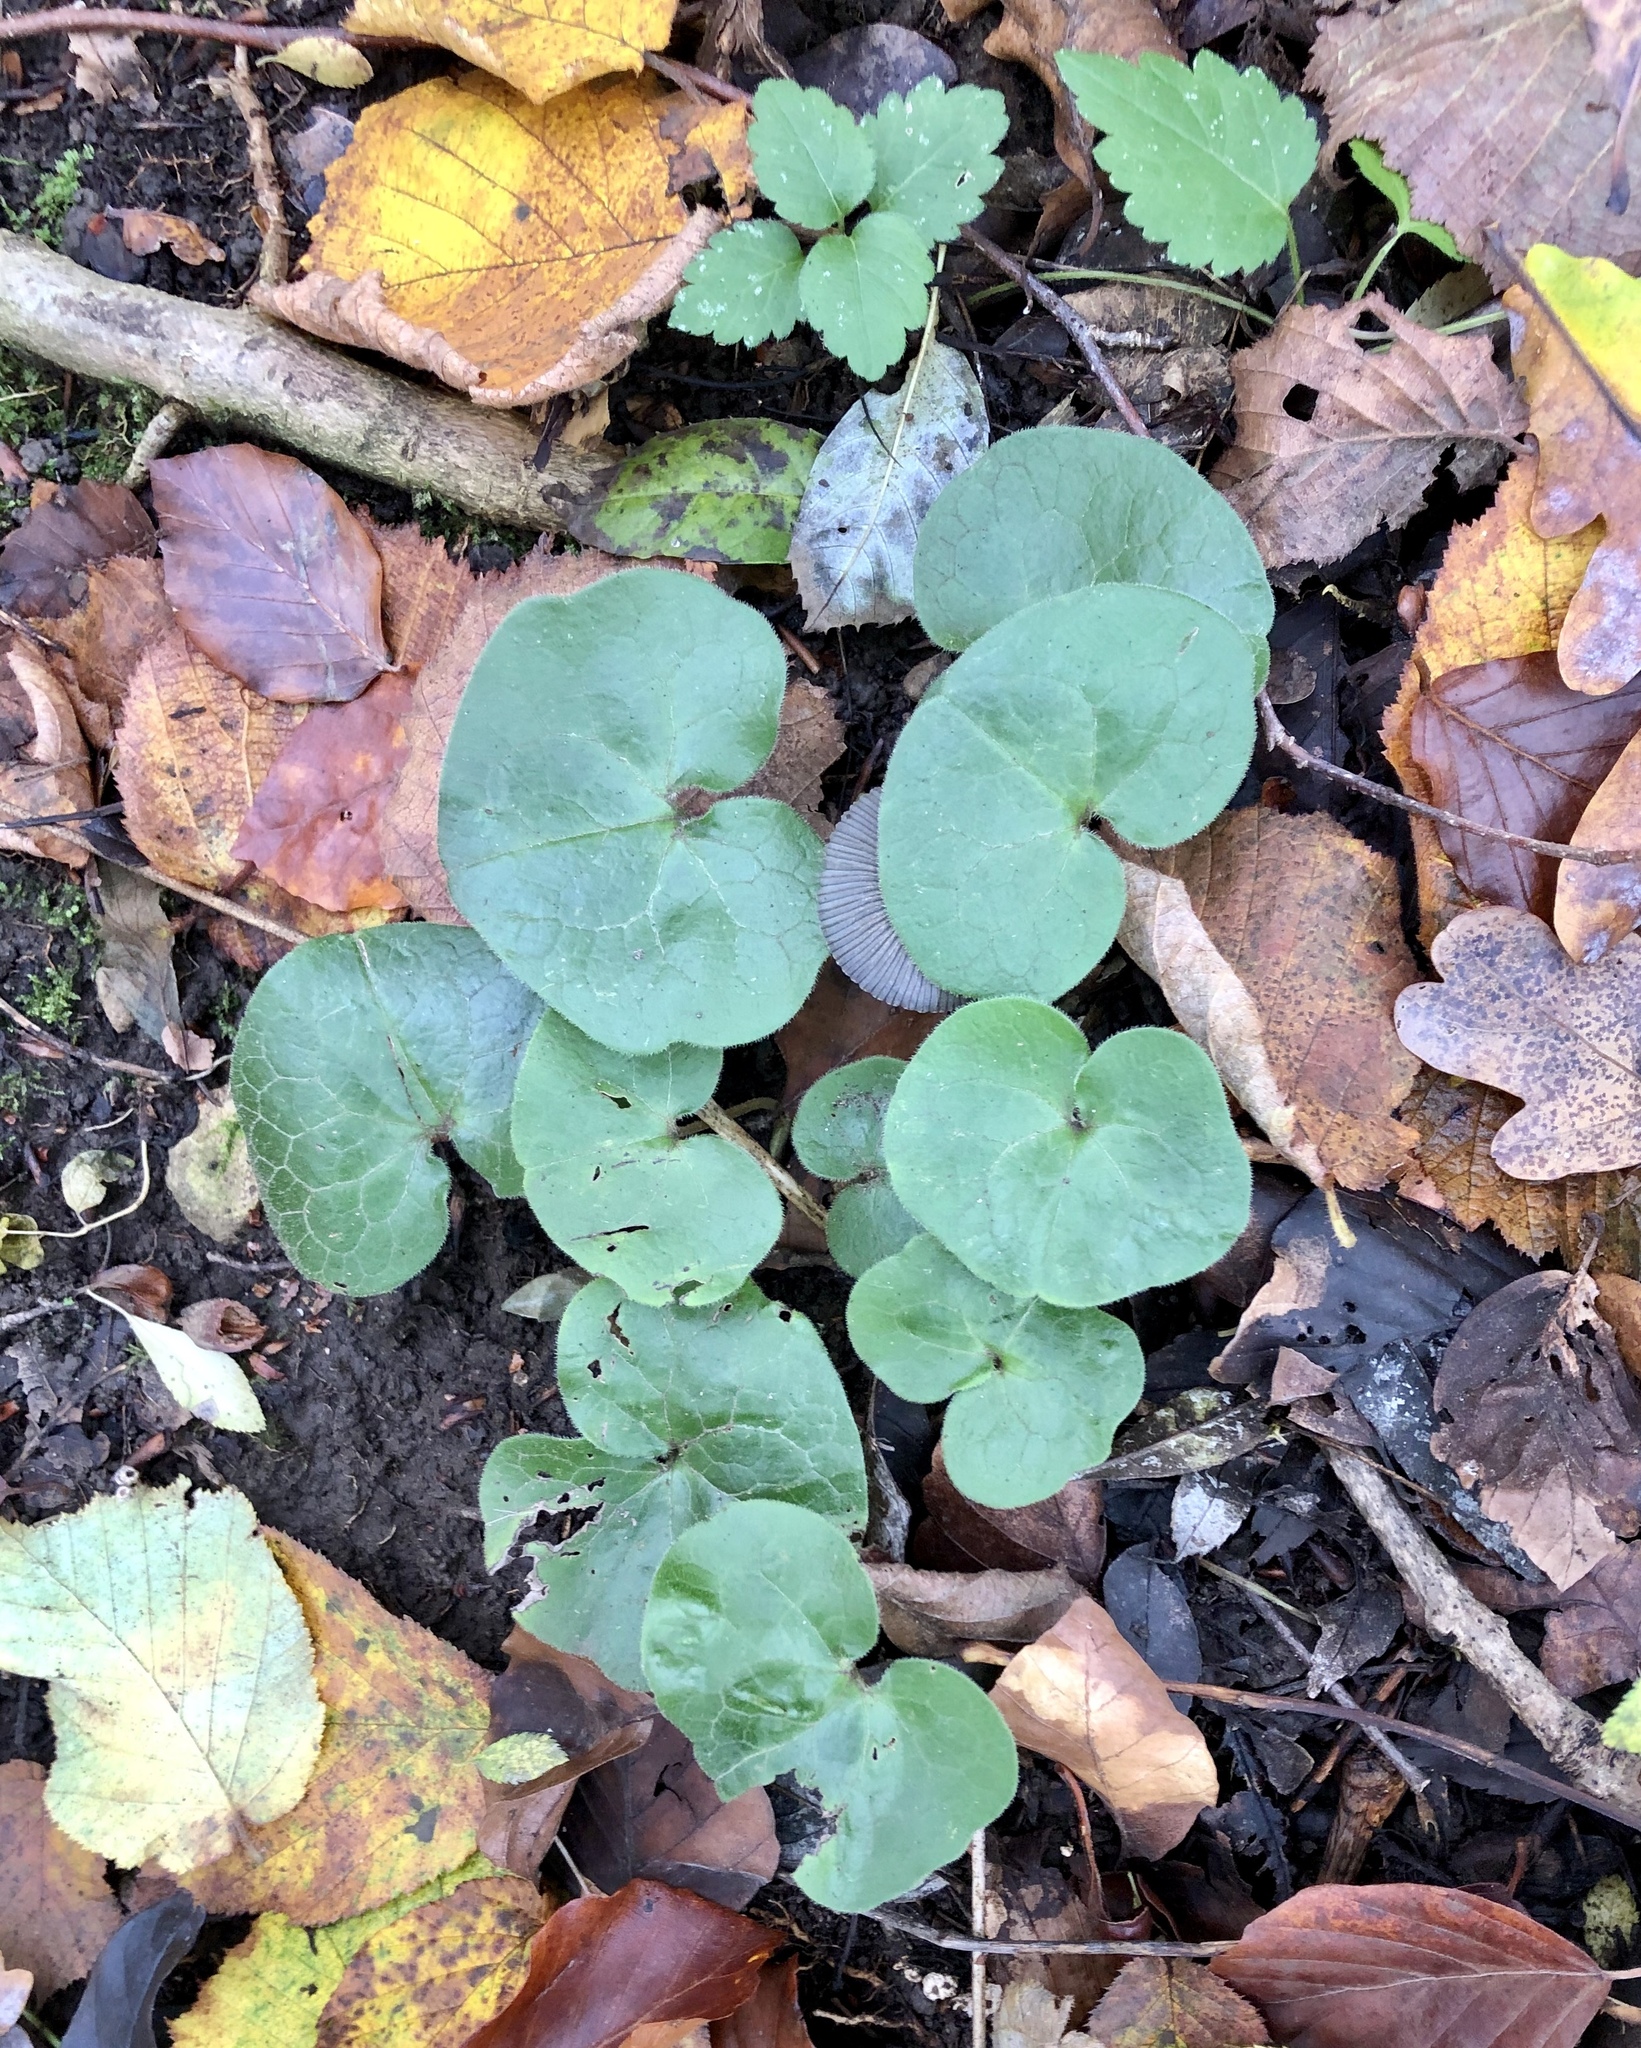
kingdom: Plantae
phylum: Tracheophyta
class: Magnoliopsida
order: Piperales
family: Aristolochiaceae
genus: Asarum
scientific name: Asarum europaeum
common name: Asarabacca
